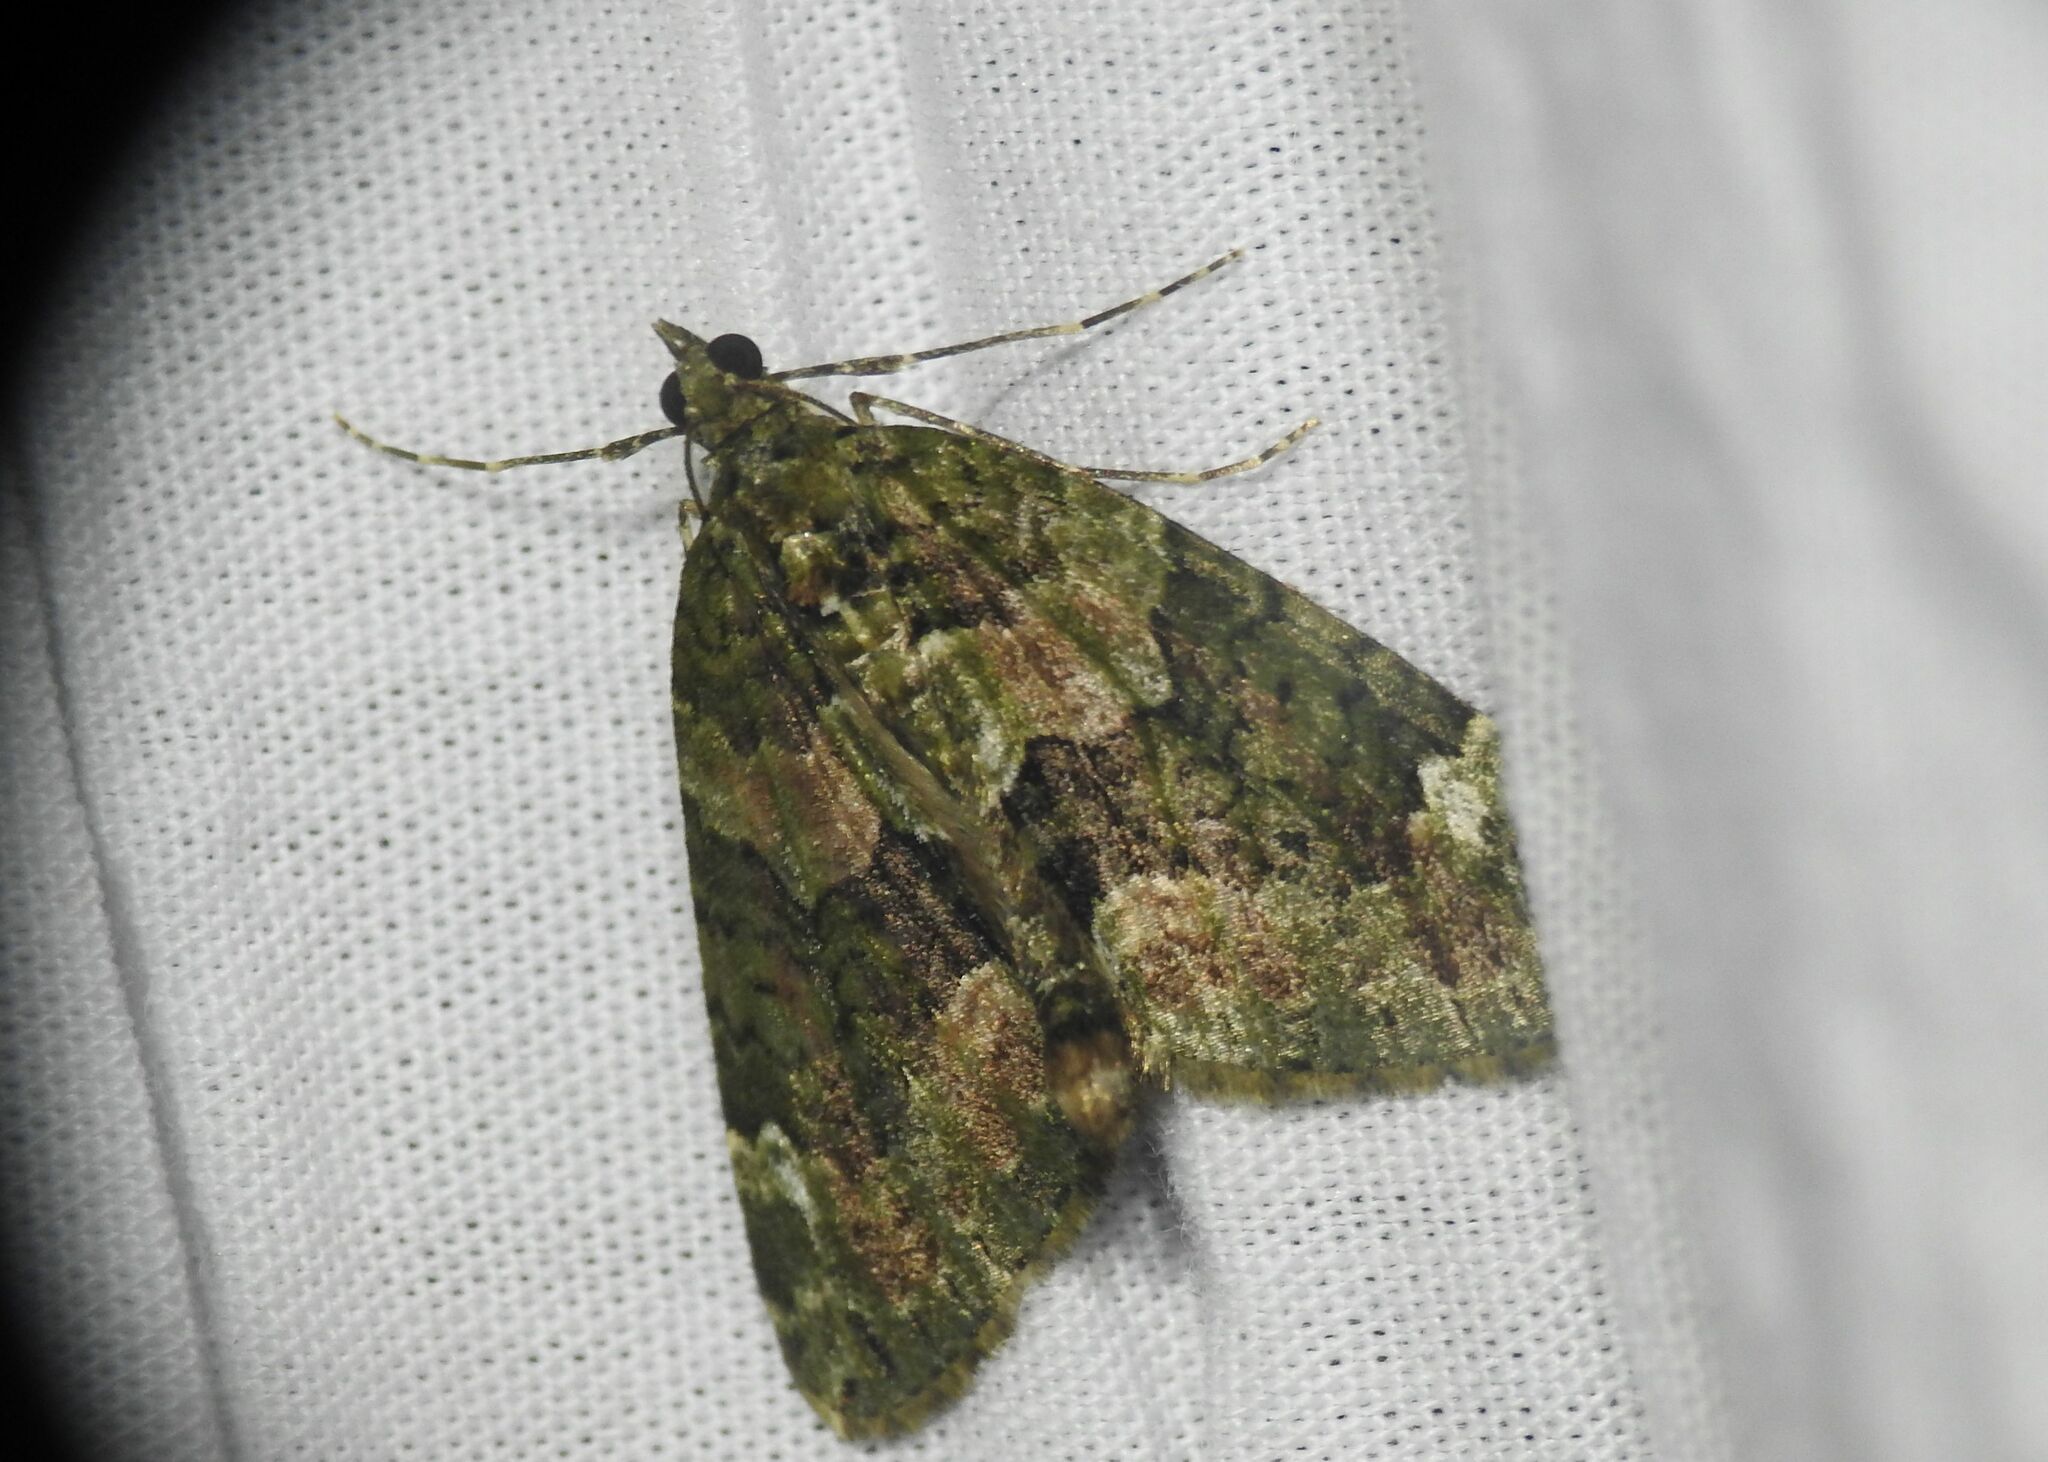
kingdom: Animalia
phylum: Arthropoda
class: Insecta
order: Lepidoptera
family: Geometridae
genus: Chloroclysta
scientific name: Chloroclysta siterata
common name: Red-green carpet
